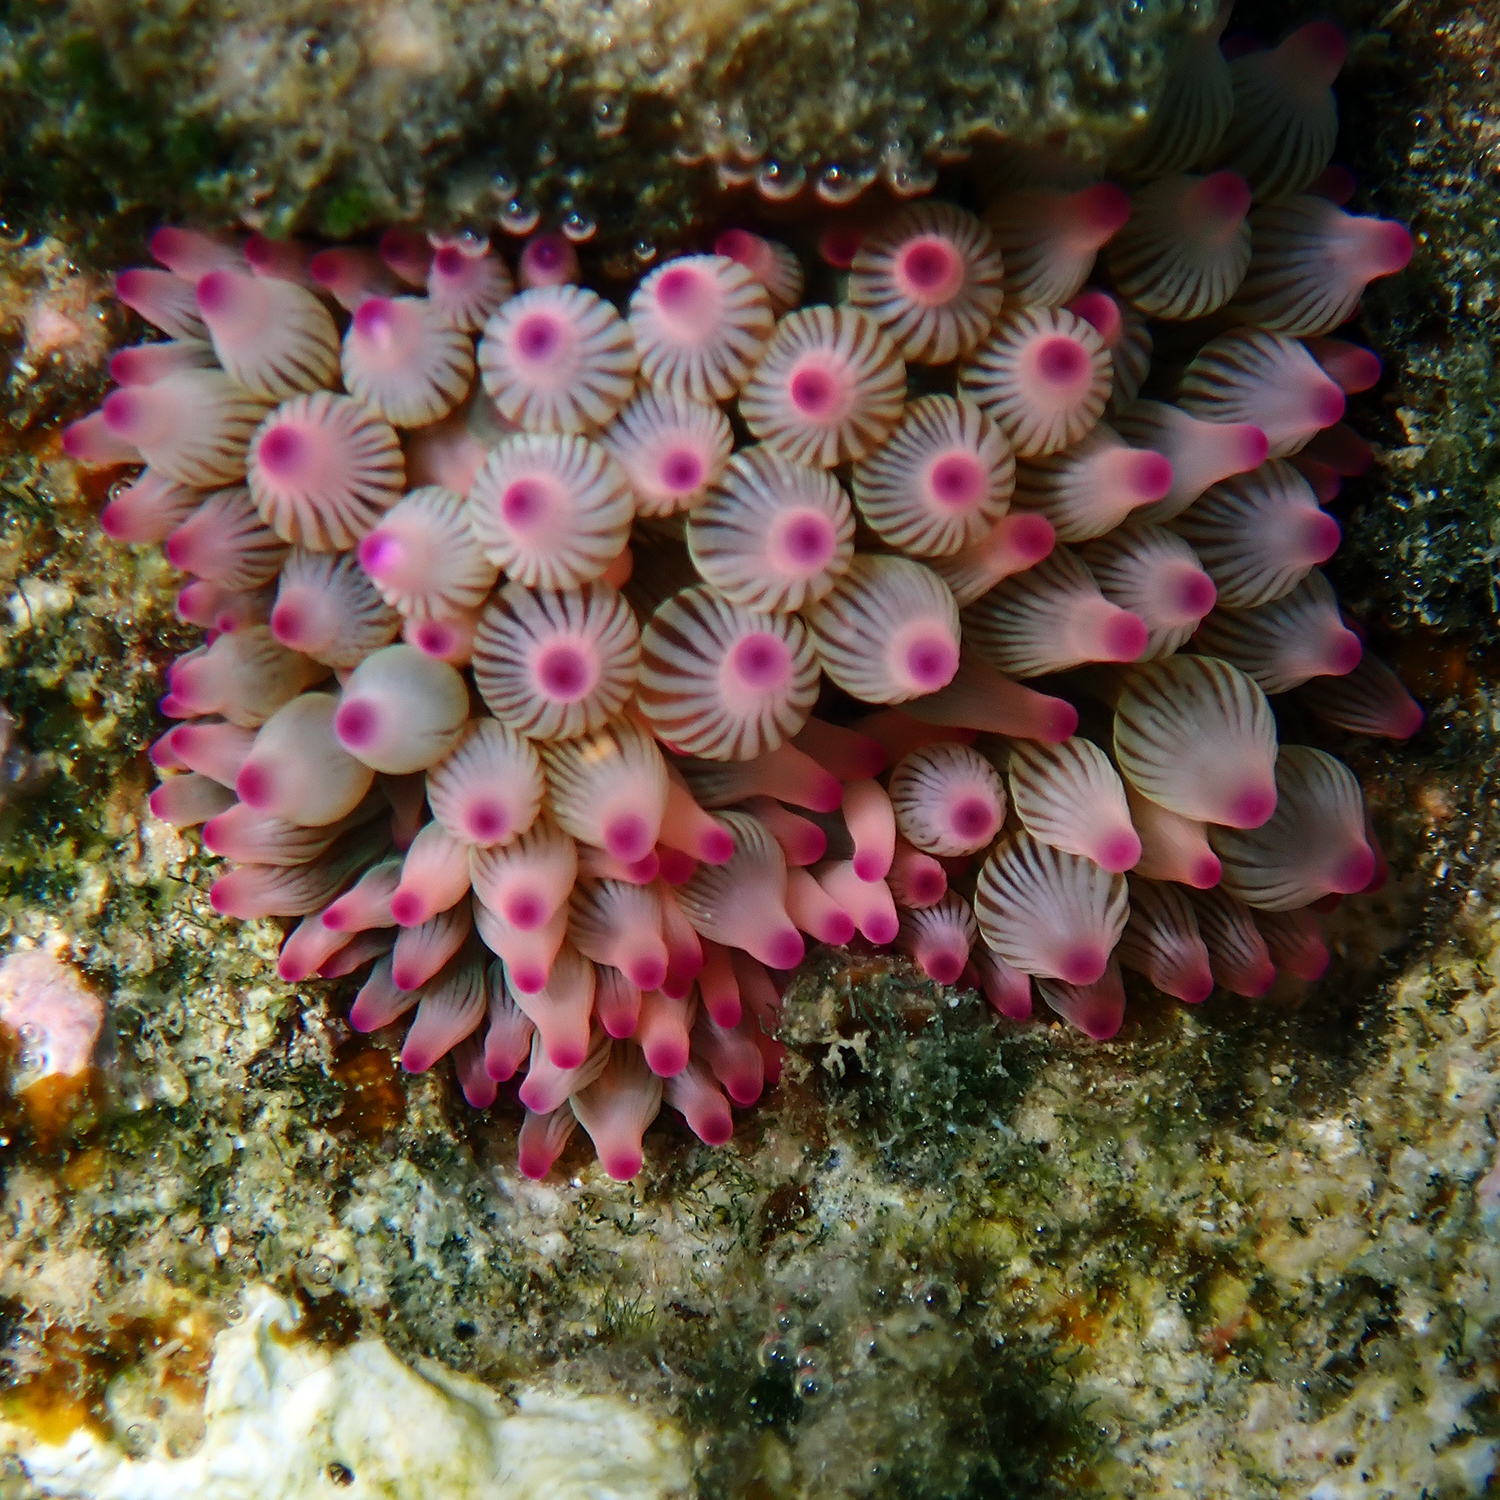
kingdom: Animalia
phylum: Cnidaria
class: Anthozoa
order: Actiniaria
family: Actiniidae
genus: Entacmaea
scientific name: Entacmaea quadricolor
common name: Bulb tentacle sea anemone
